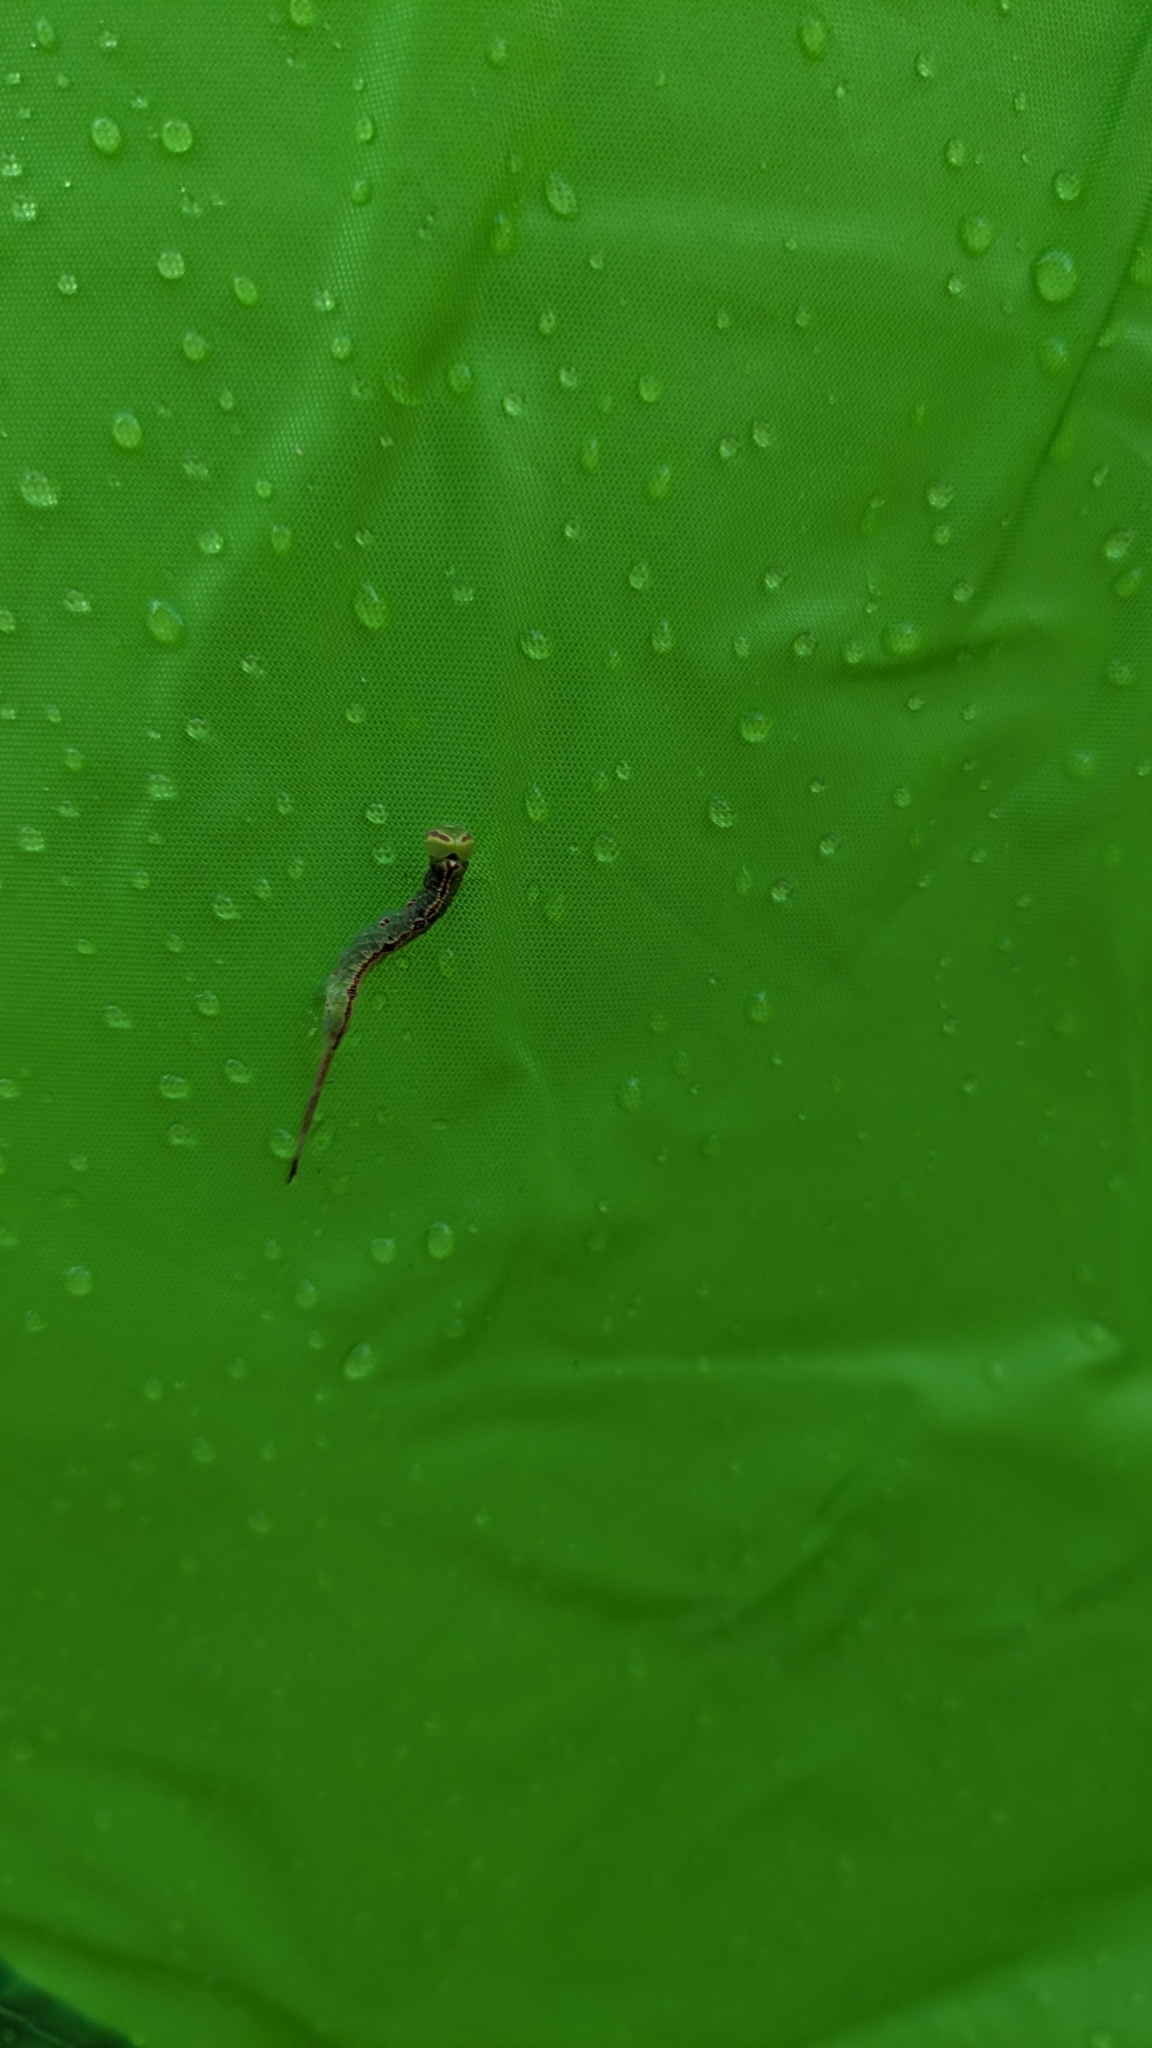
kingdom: Animalia
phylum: Arthropoda
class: Insecta
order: Lepidoptera
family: Notodontidae
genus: Macrurocampa
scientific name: Macrurocampa marthesia
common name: Mottled prominent
